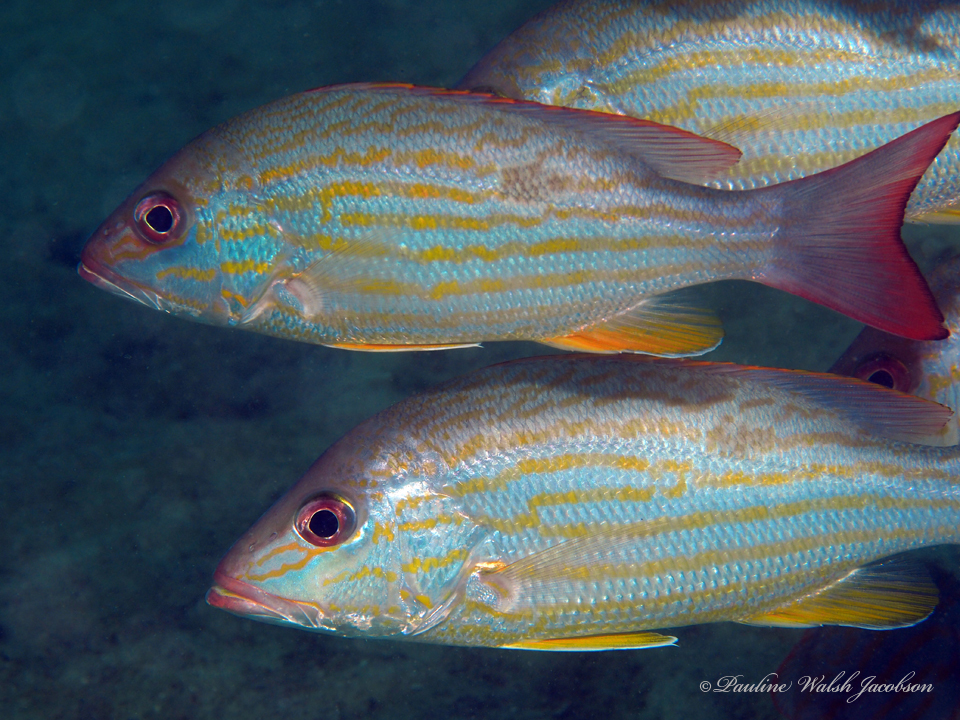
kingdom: Animalia
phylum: Chordata
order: Perciformes
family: Lutjanidae
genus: Lutjanus
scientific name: Lutjanus synagris
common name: Lane snapper
